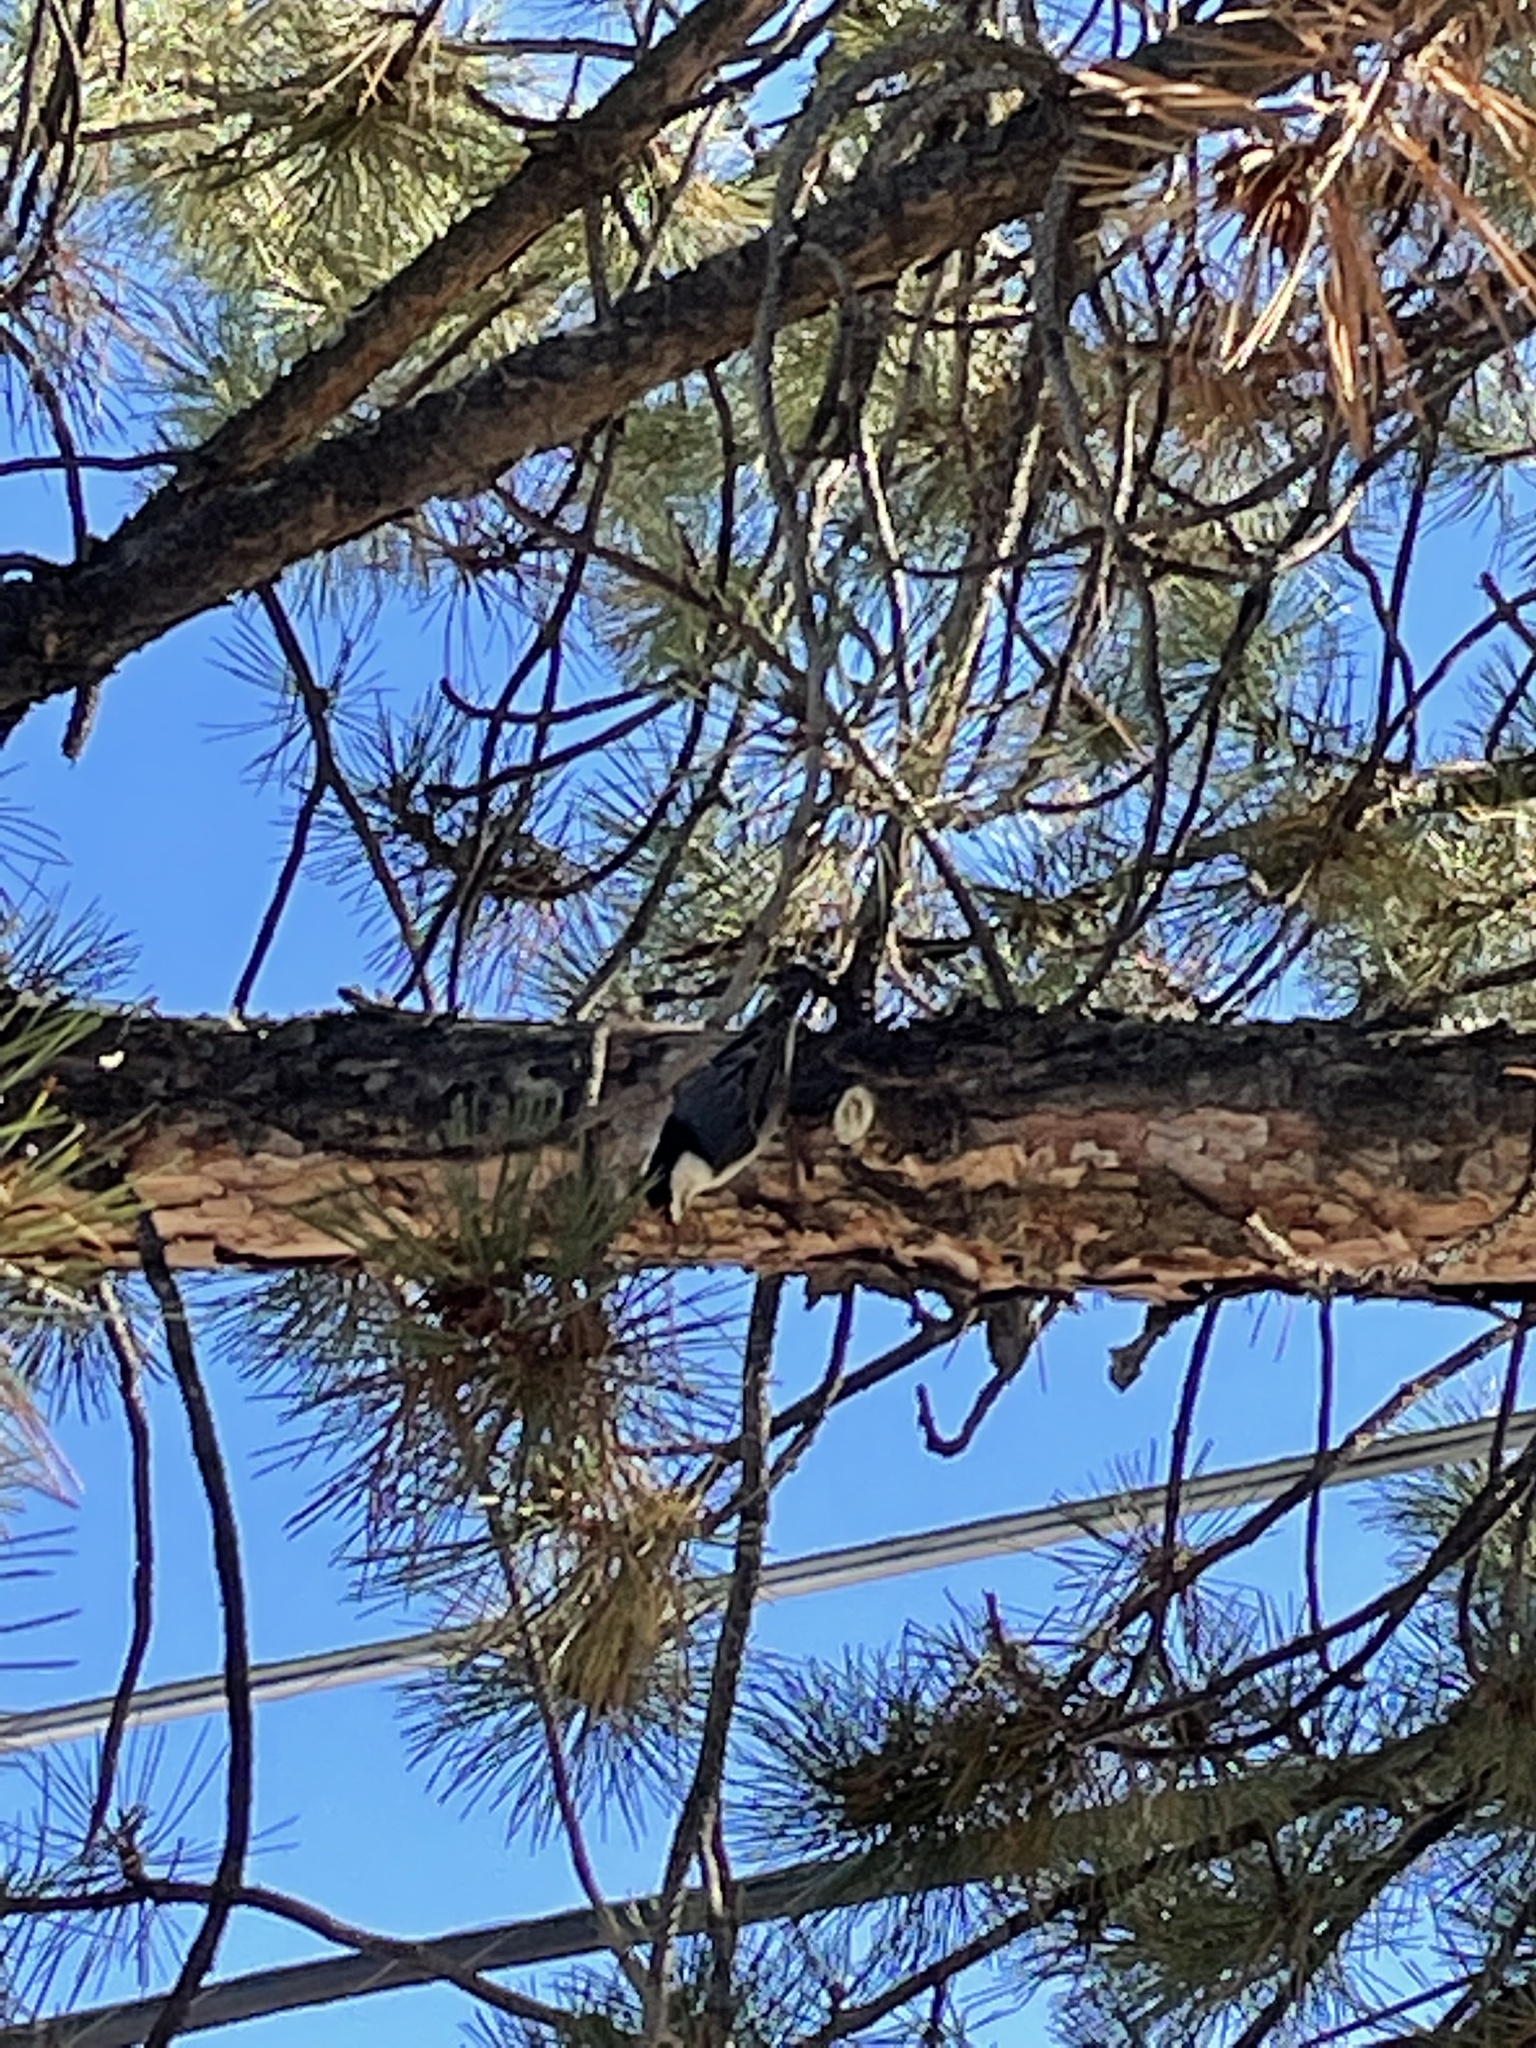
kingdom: Animalia
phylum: Chordata
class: Aves
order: Passeriformes
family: Sittidae
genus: Sitta
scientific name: Sitta carolinensis
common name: White-breasted nuthatch
